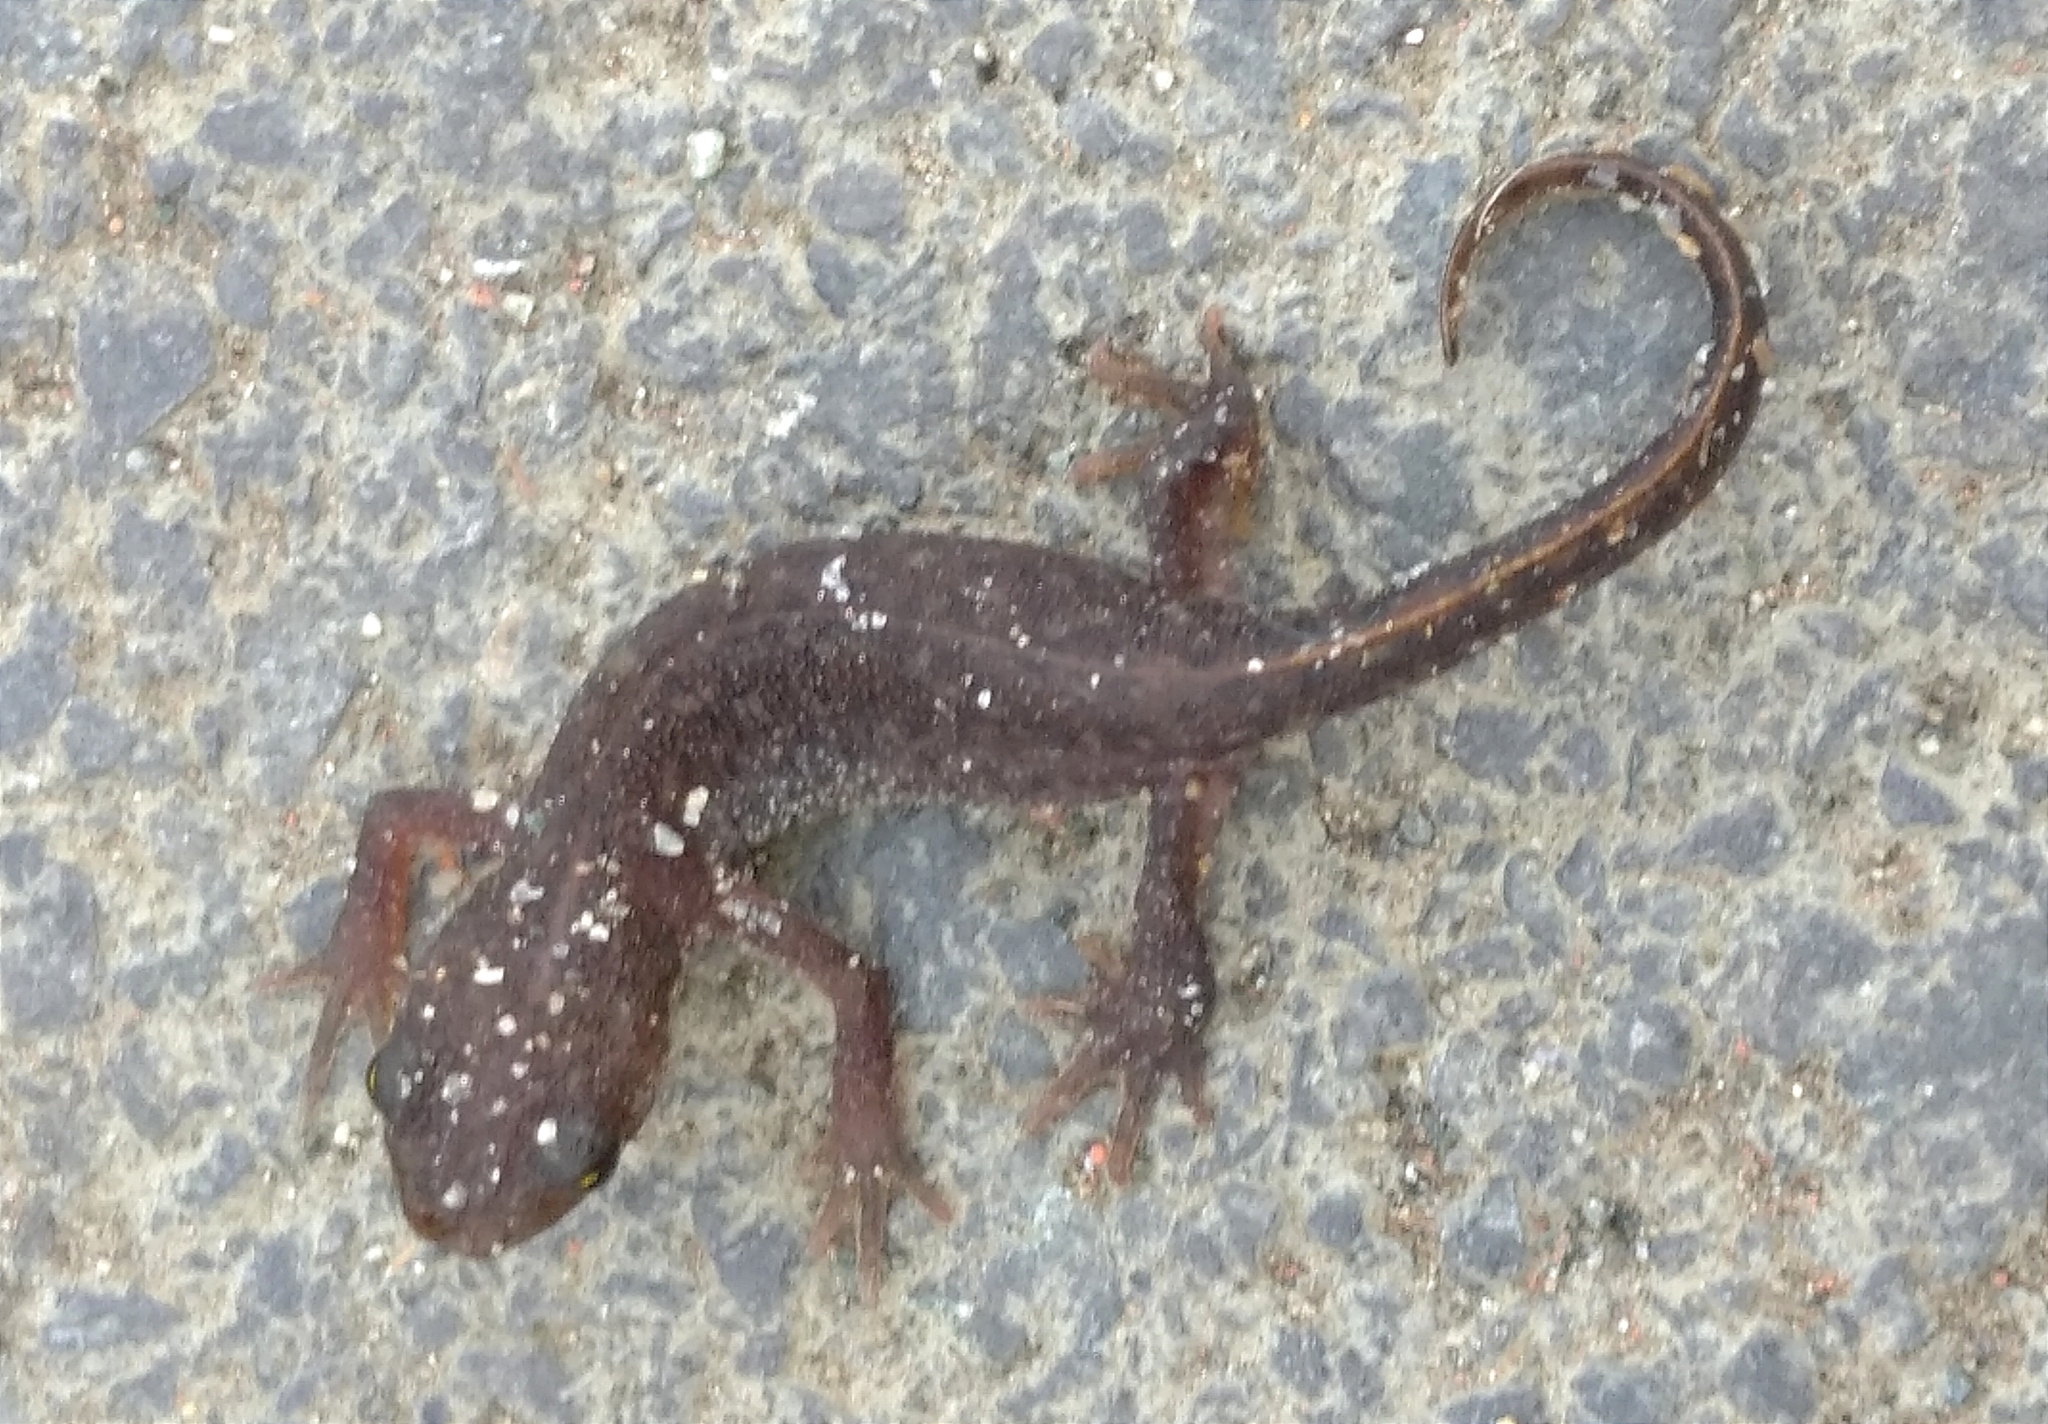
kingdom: Animalia
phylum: Chordata
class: Amphibia
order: Caudata
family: Salamandridae
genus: Triturus
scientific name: Triturus ivanbureschi
